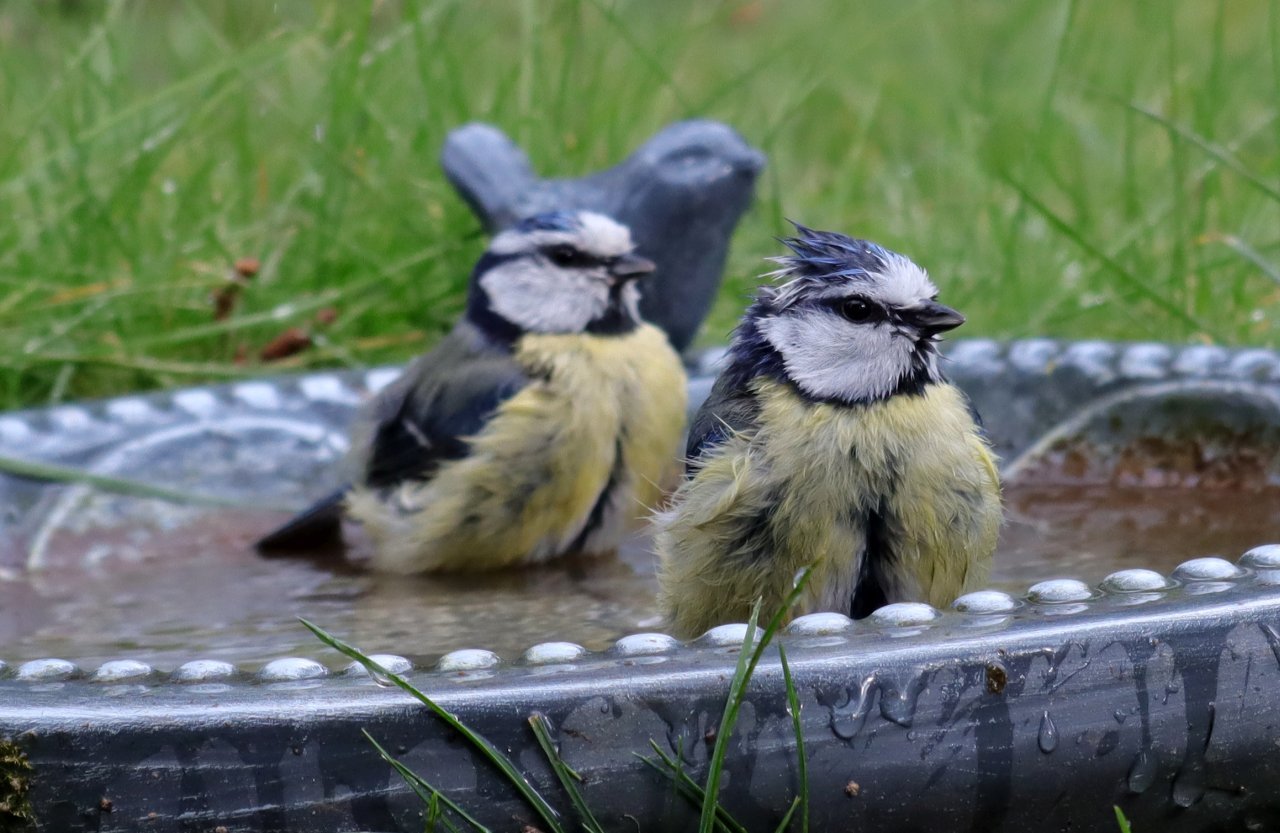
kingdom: Animalia
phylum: Chordata
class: Aves
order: Passeriformes
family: Paridae
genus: Cyanistes
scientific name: Cyanistes caeruleus
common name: Eurasian blue tit
